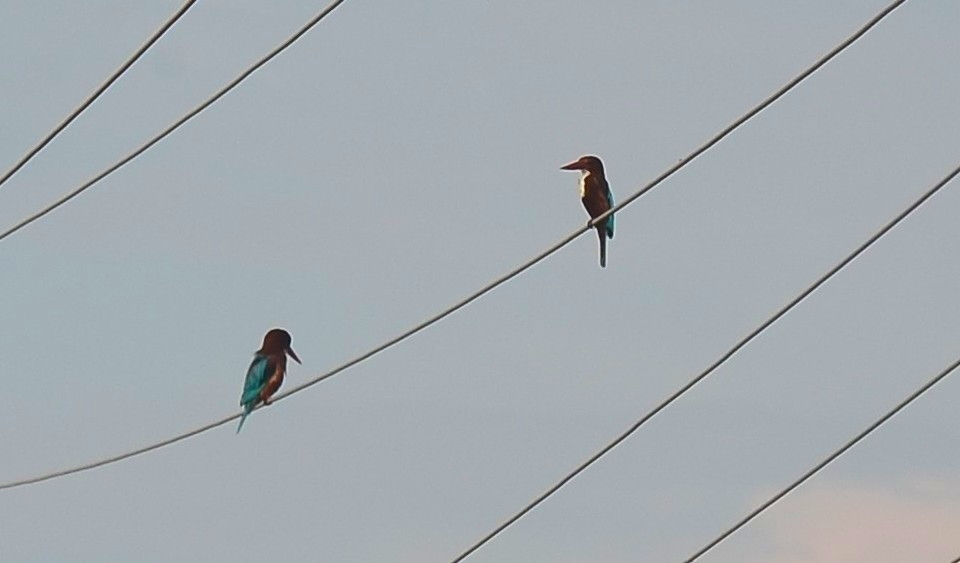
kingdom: Animalia
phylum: Chordata
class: Aves
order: Coraciiformes
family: Alcedinidae
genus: Halcyon
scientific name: Halcyon smyrnensis
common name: White-throated kingfisher
